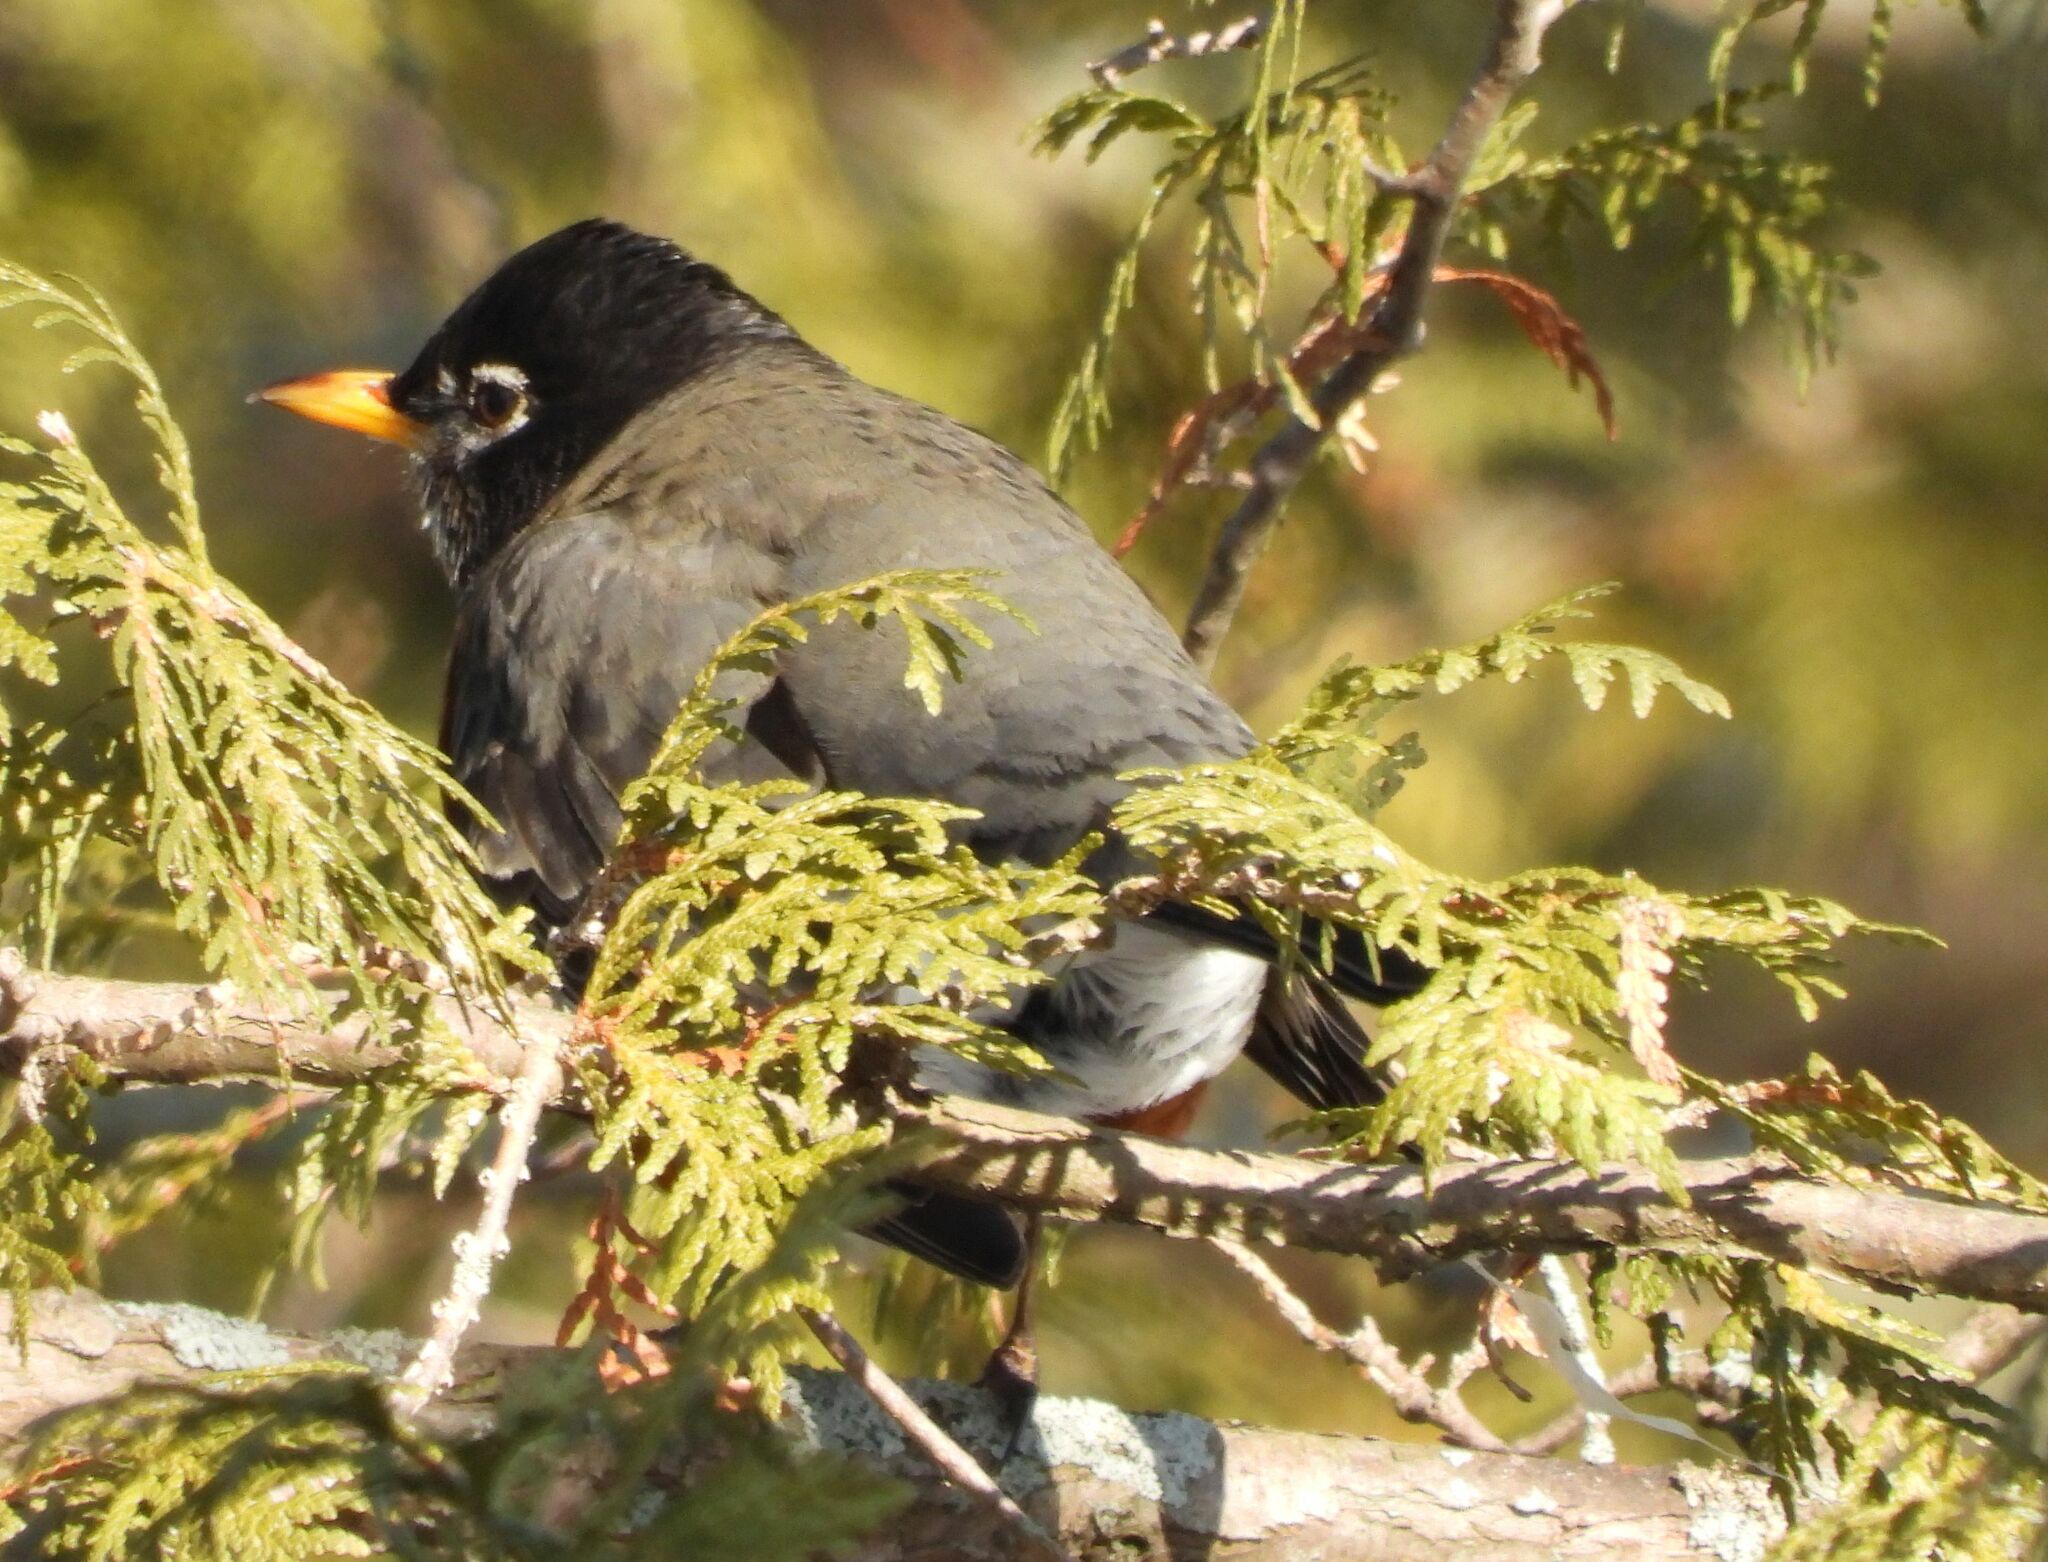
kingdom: Animalia
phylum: Chordata
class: Aves
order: Passeriformes
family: Turdidae
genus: Turdus
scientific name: Turdus migratorius
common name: American robin
